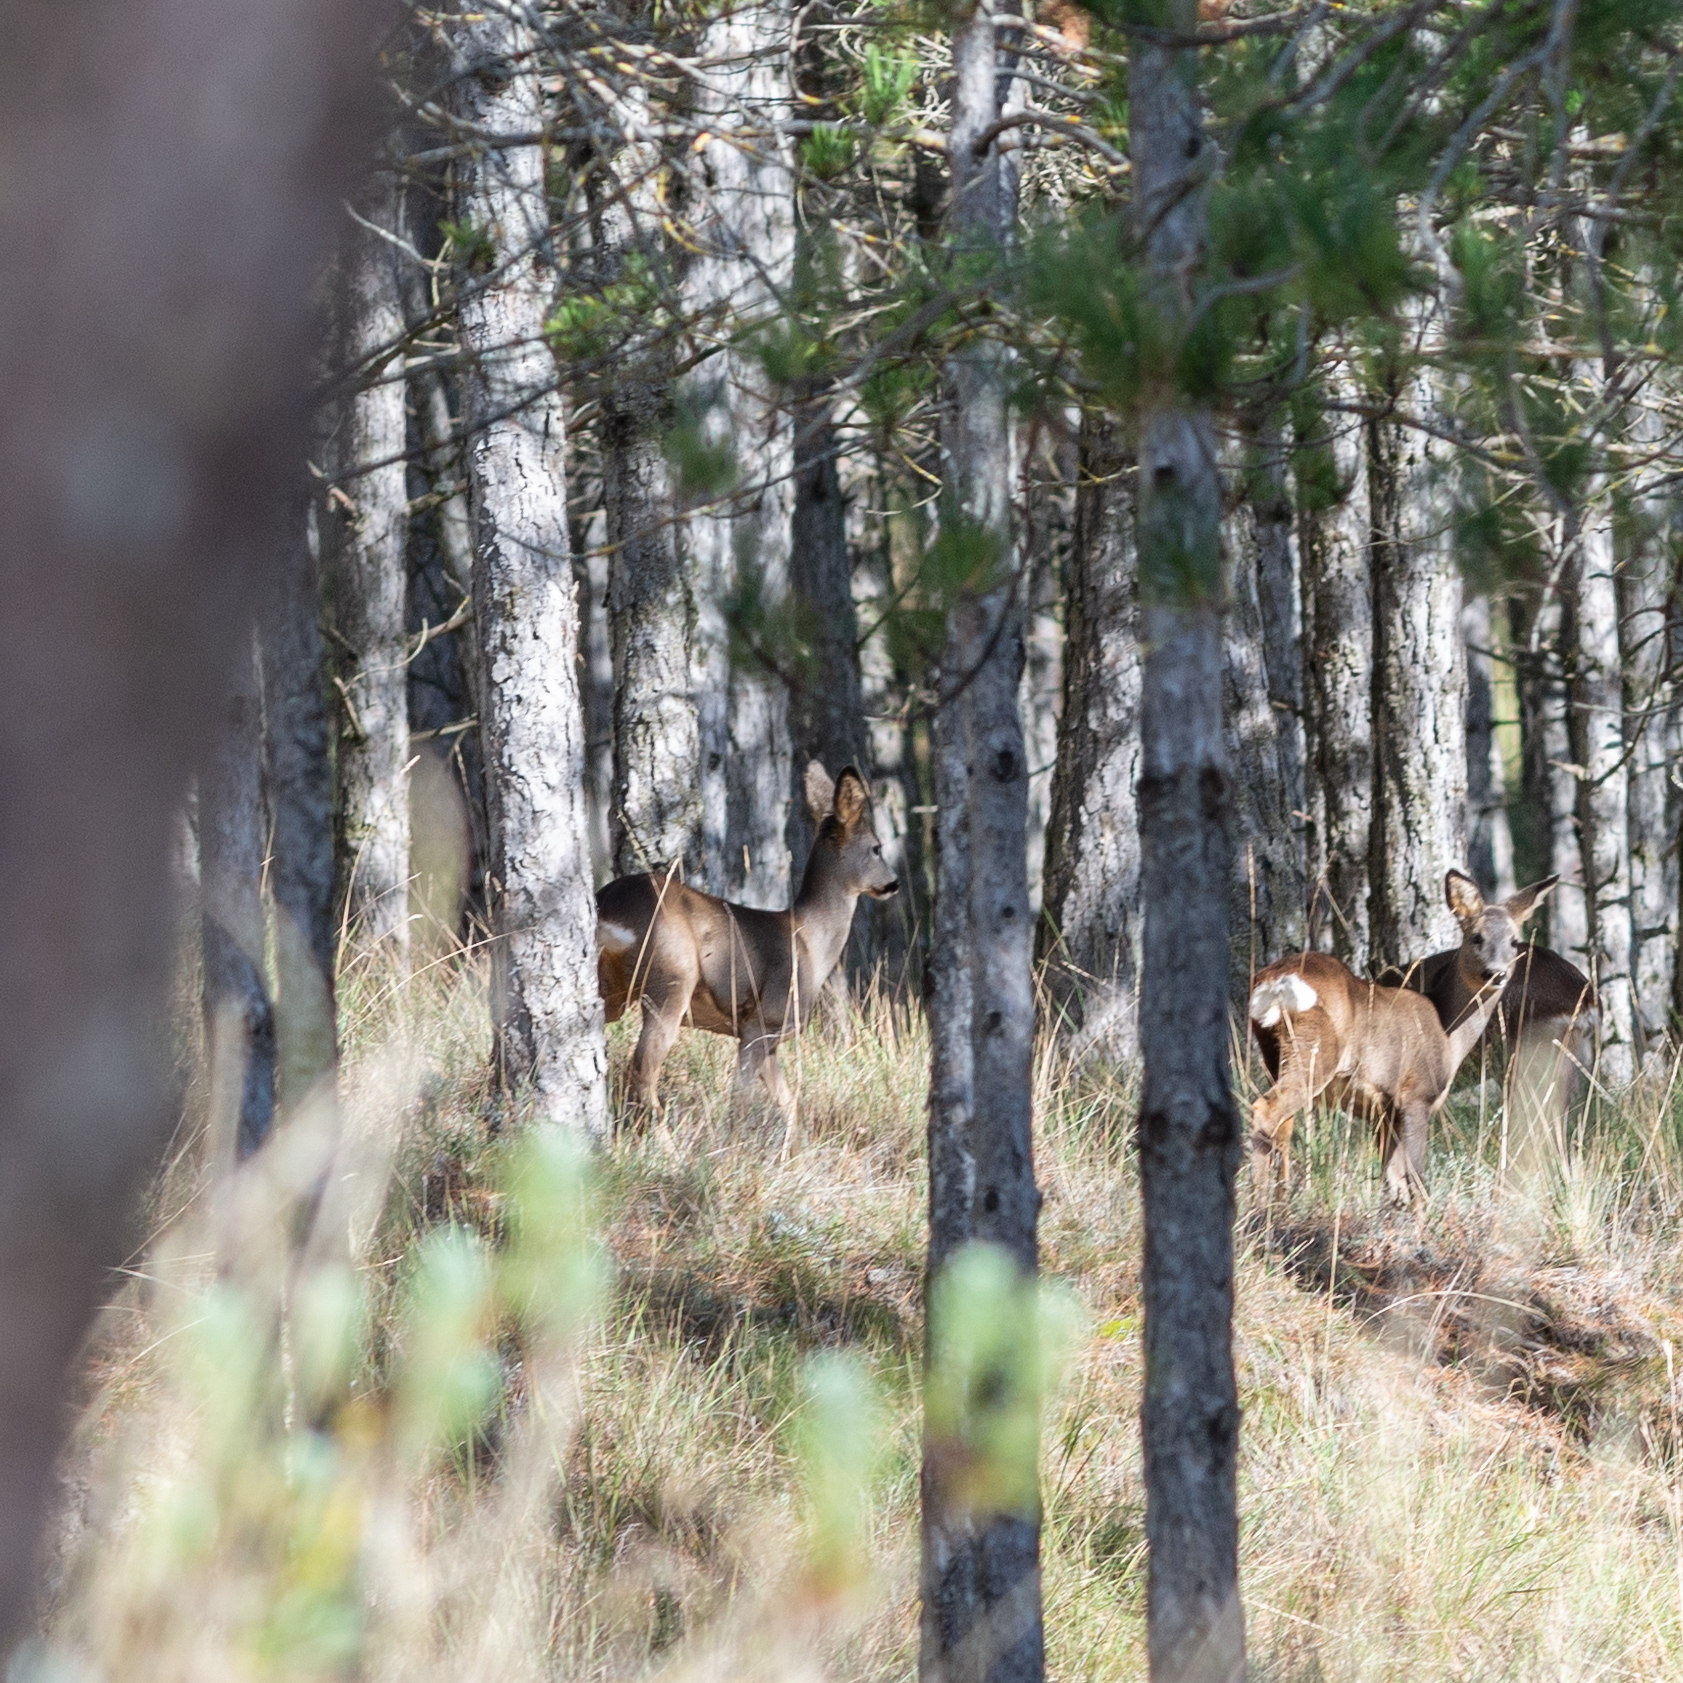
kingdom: Animalia
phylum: Chordata
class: Mammalia
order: Artiodactyla
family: Cervidae
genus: Capreolus
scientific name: Capreolus capreolus
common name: Western roe deer
